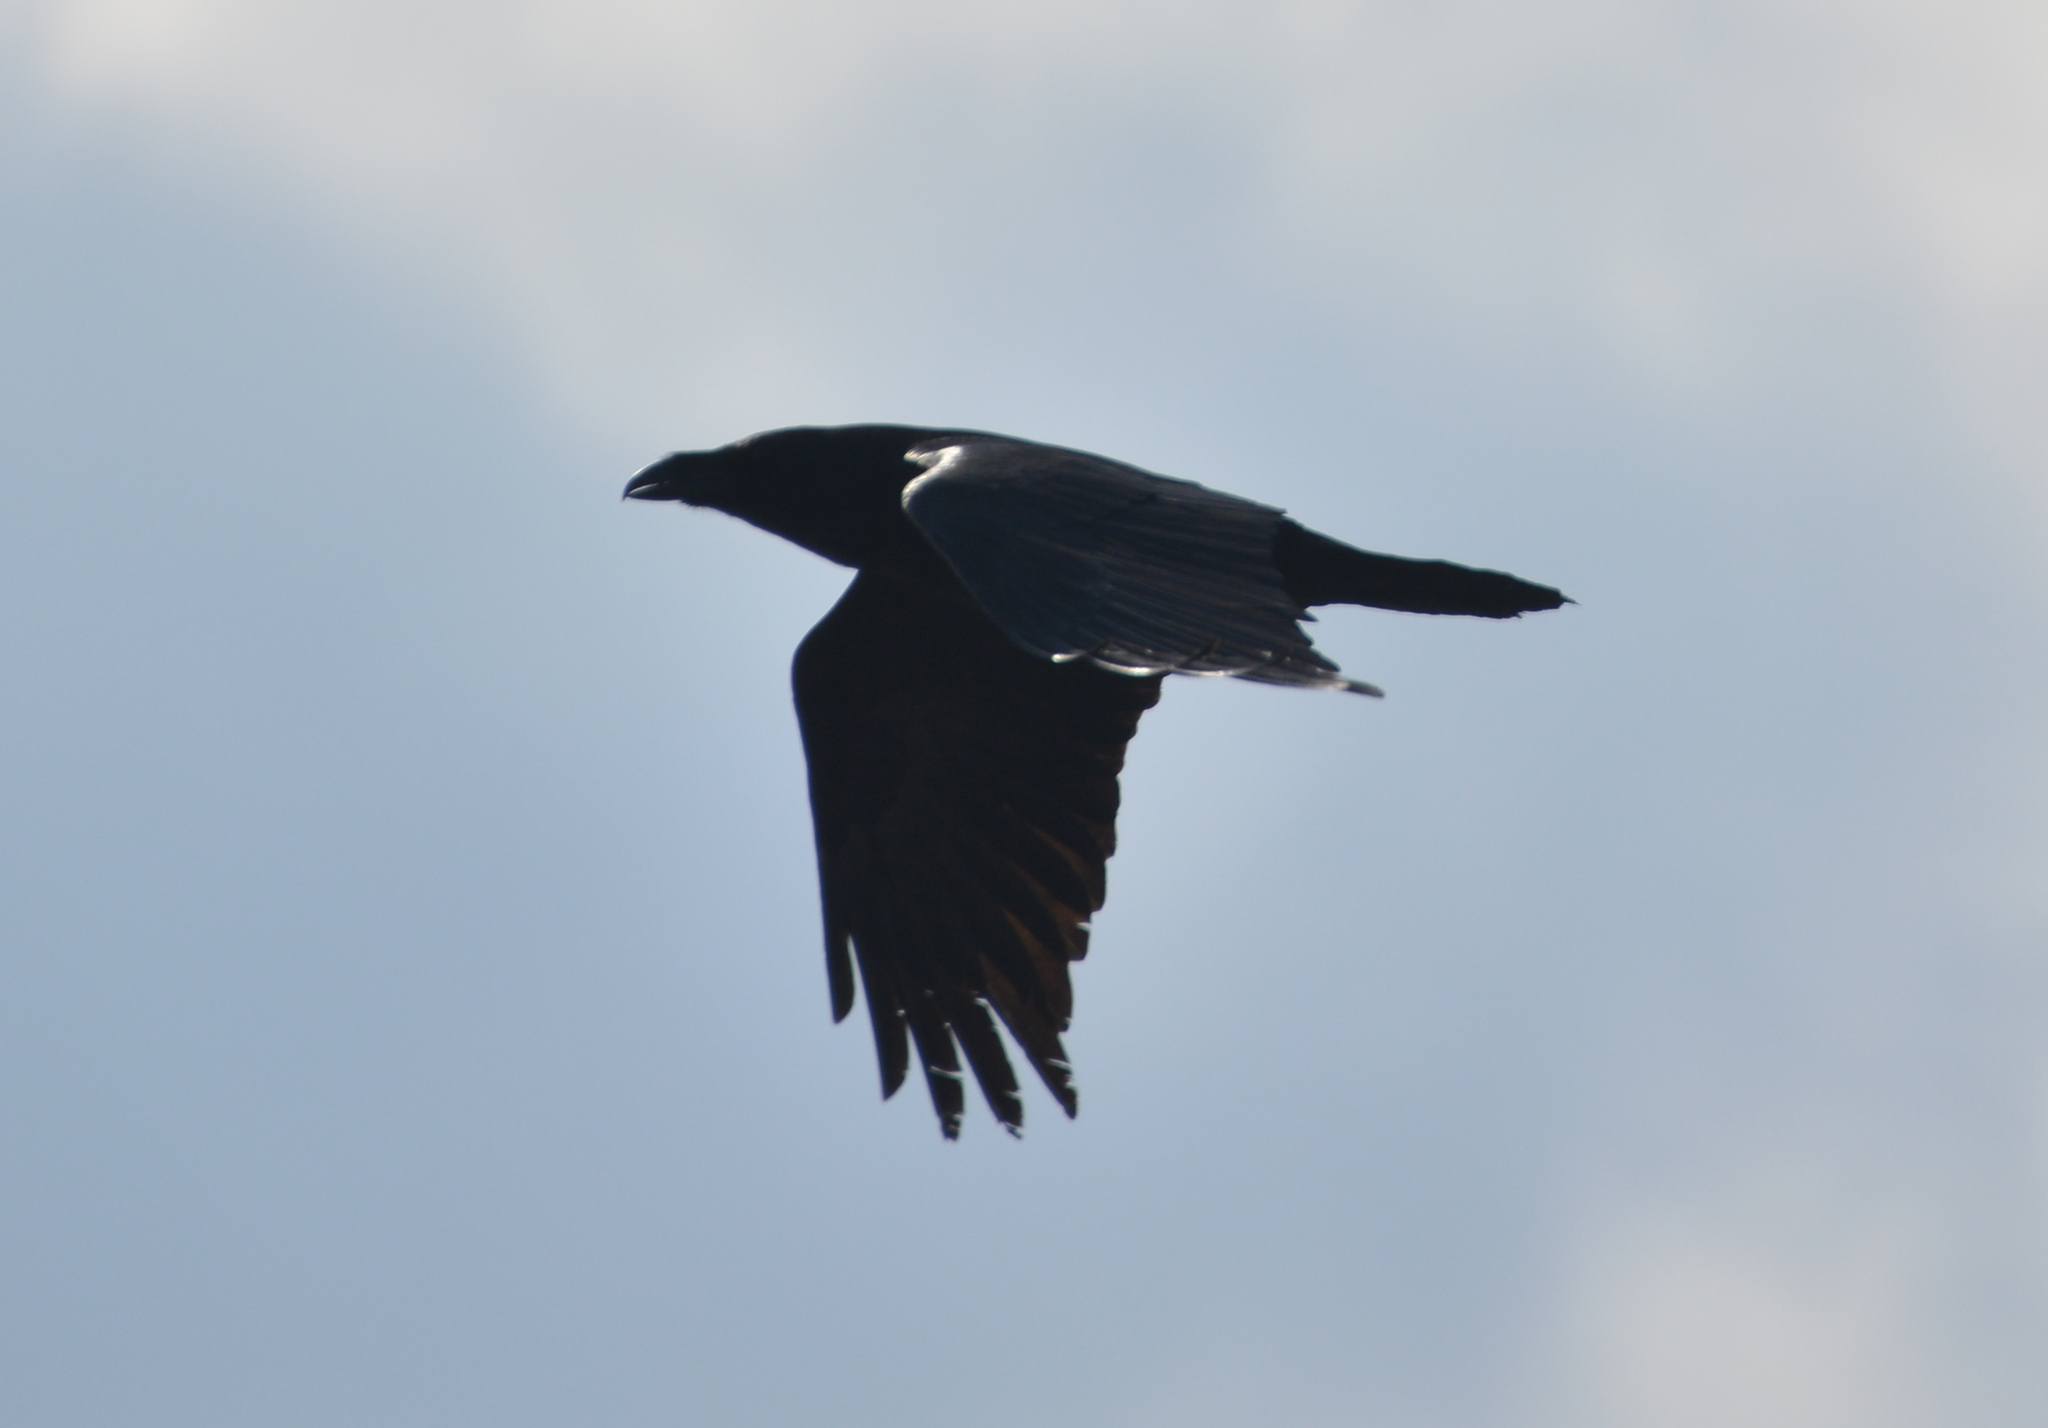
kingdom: Animalia
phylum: Chordata
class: Aves
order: Passeriformes
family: Corvidae
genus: Corvus
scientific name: Corvus corax
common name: Common raven
